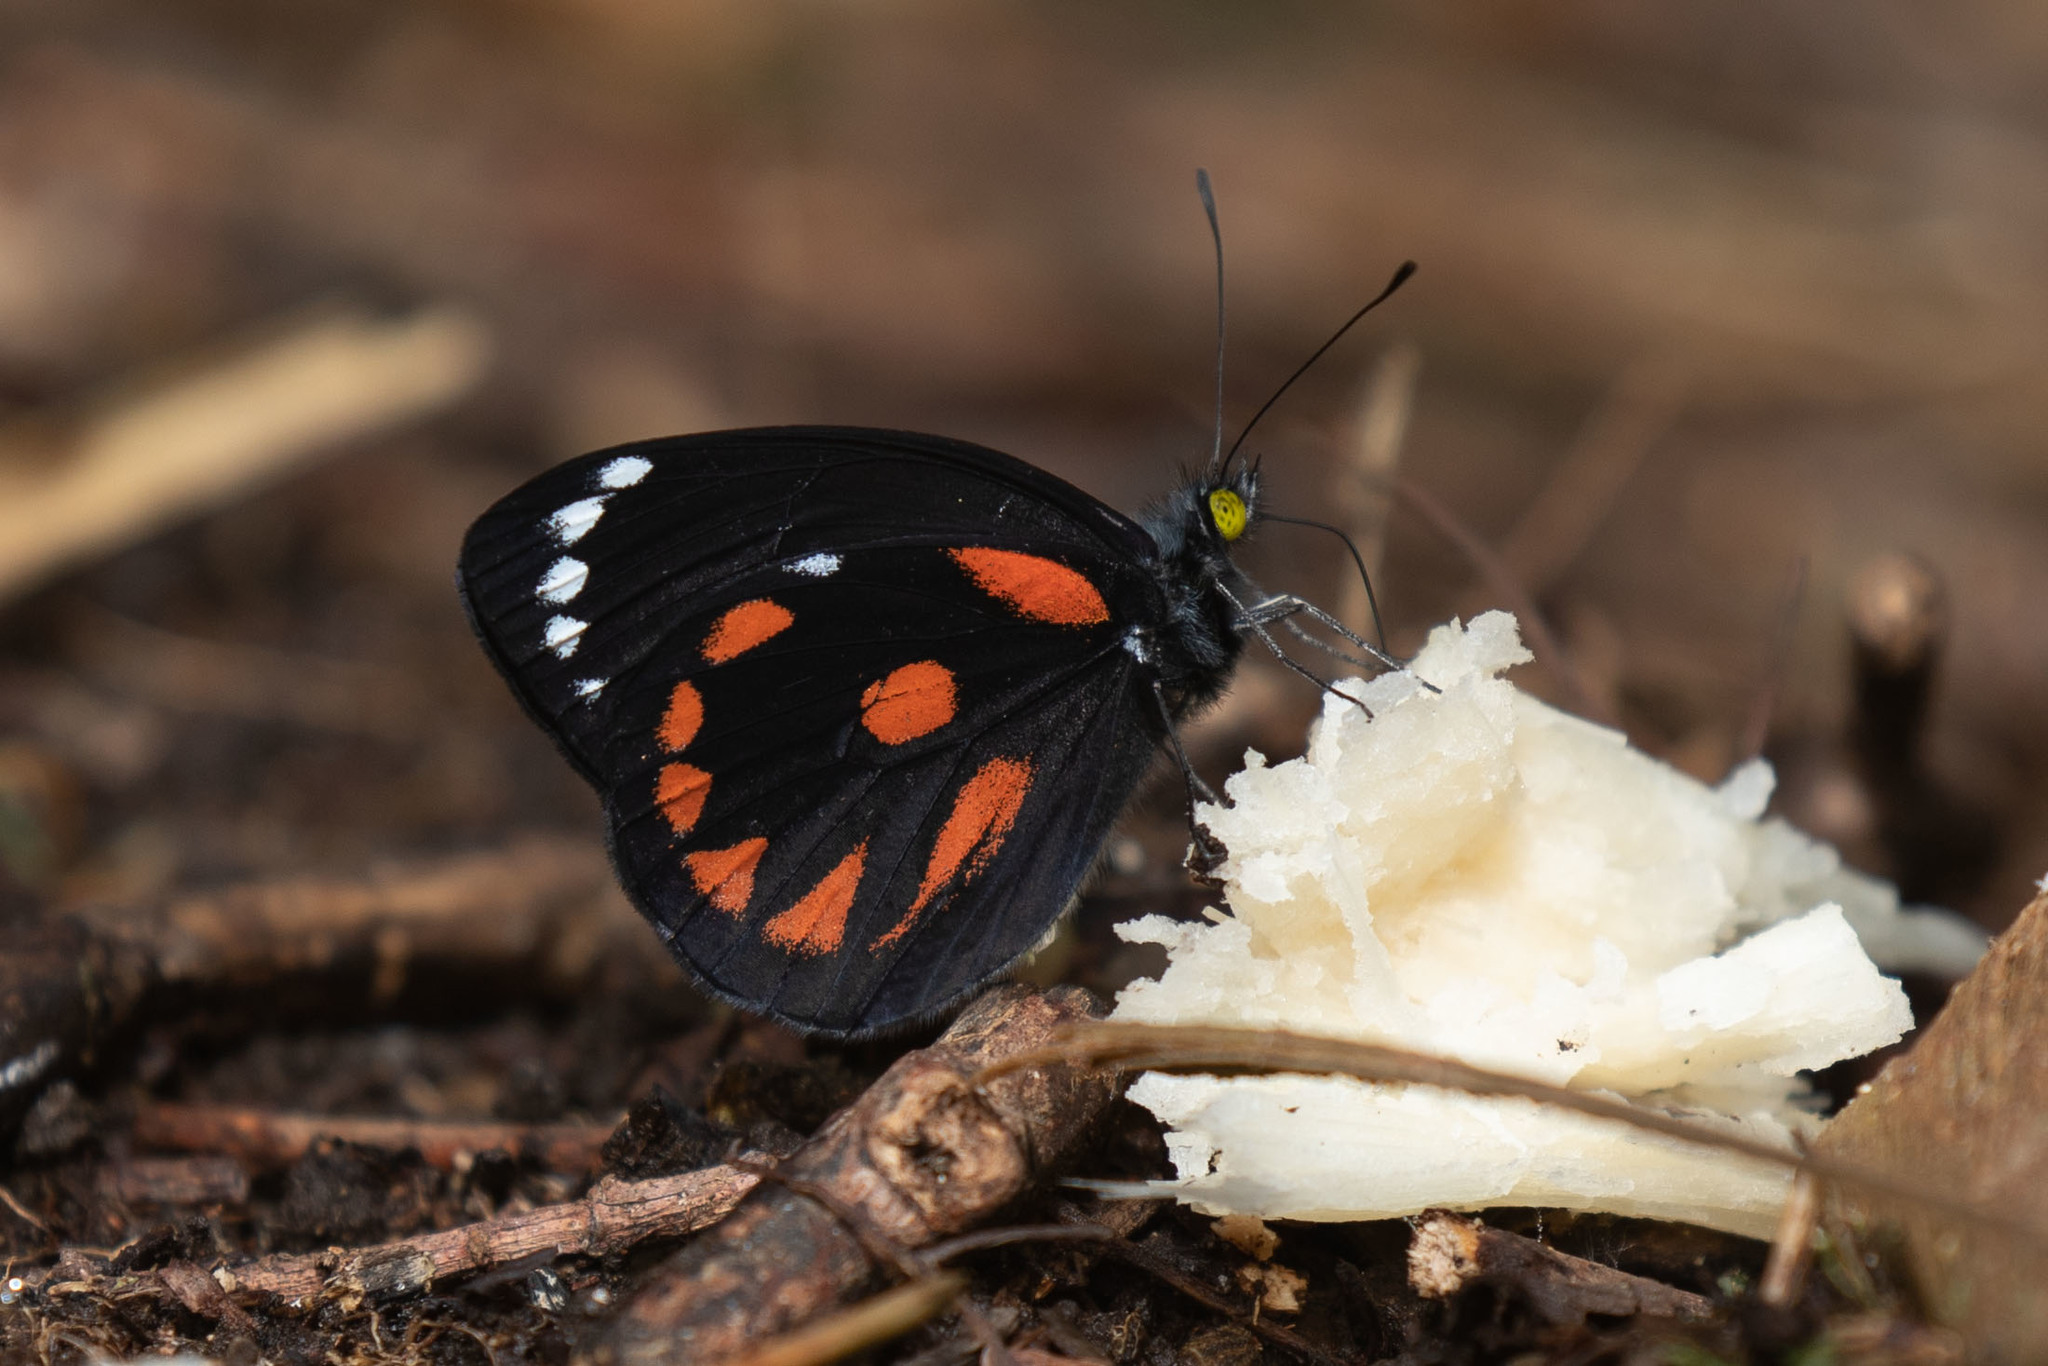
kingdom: Animalia
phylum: Arthropoda
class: Insecta
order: Lepidoptera
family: Pieridae
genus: Delias
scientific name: Delias bornemanni
